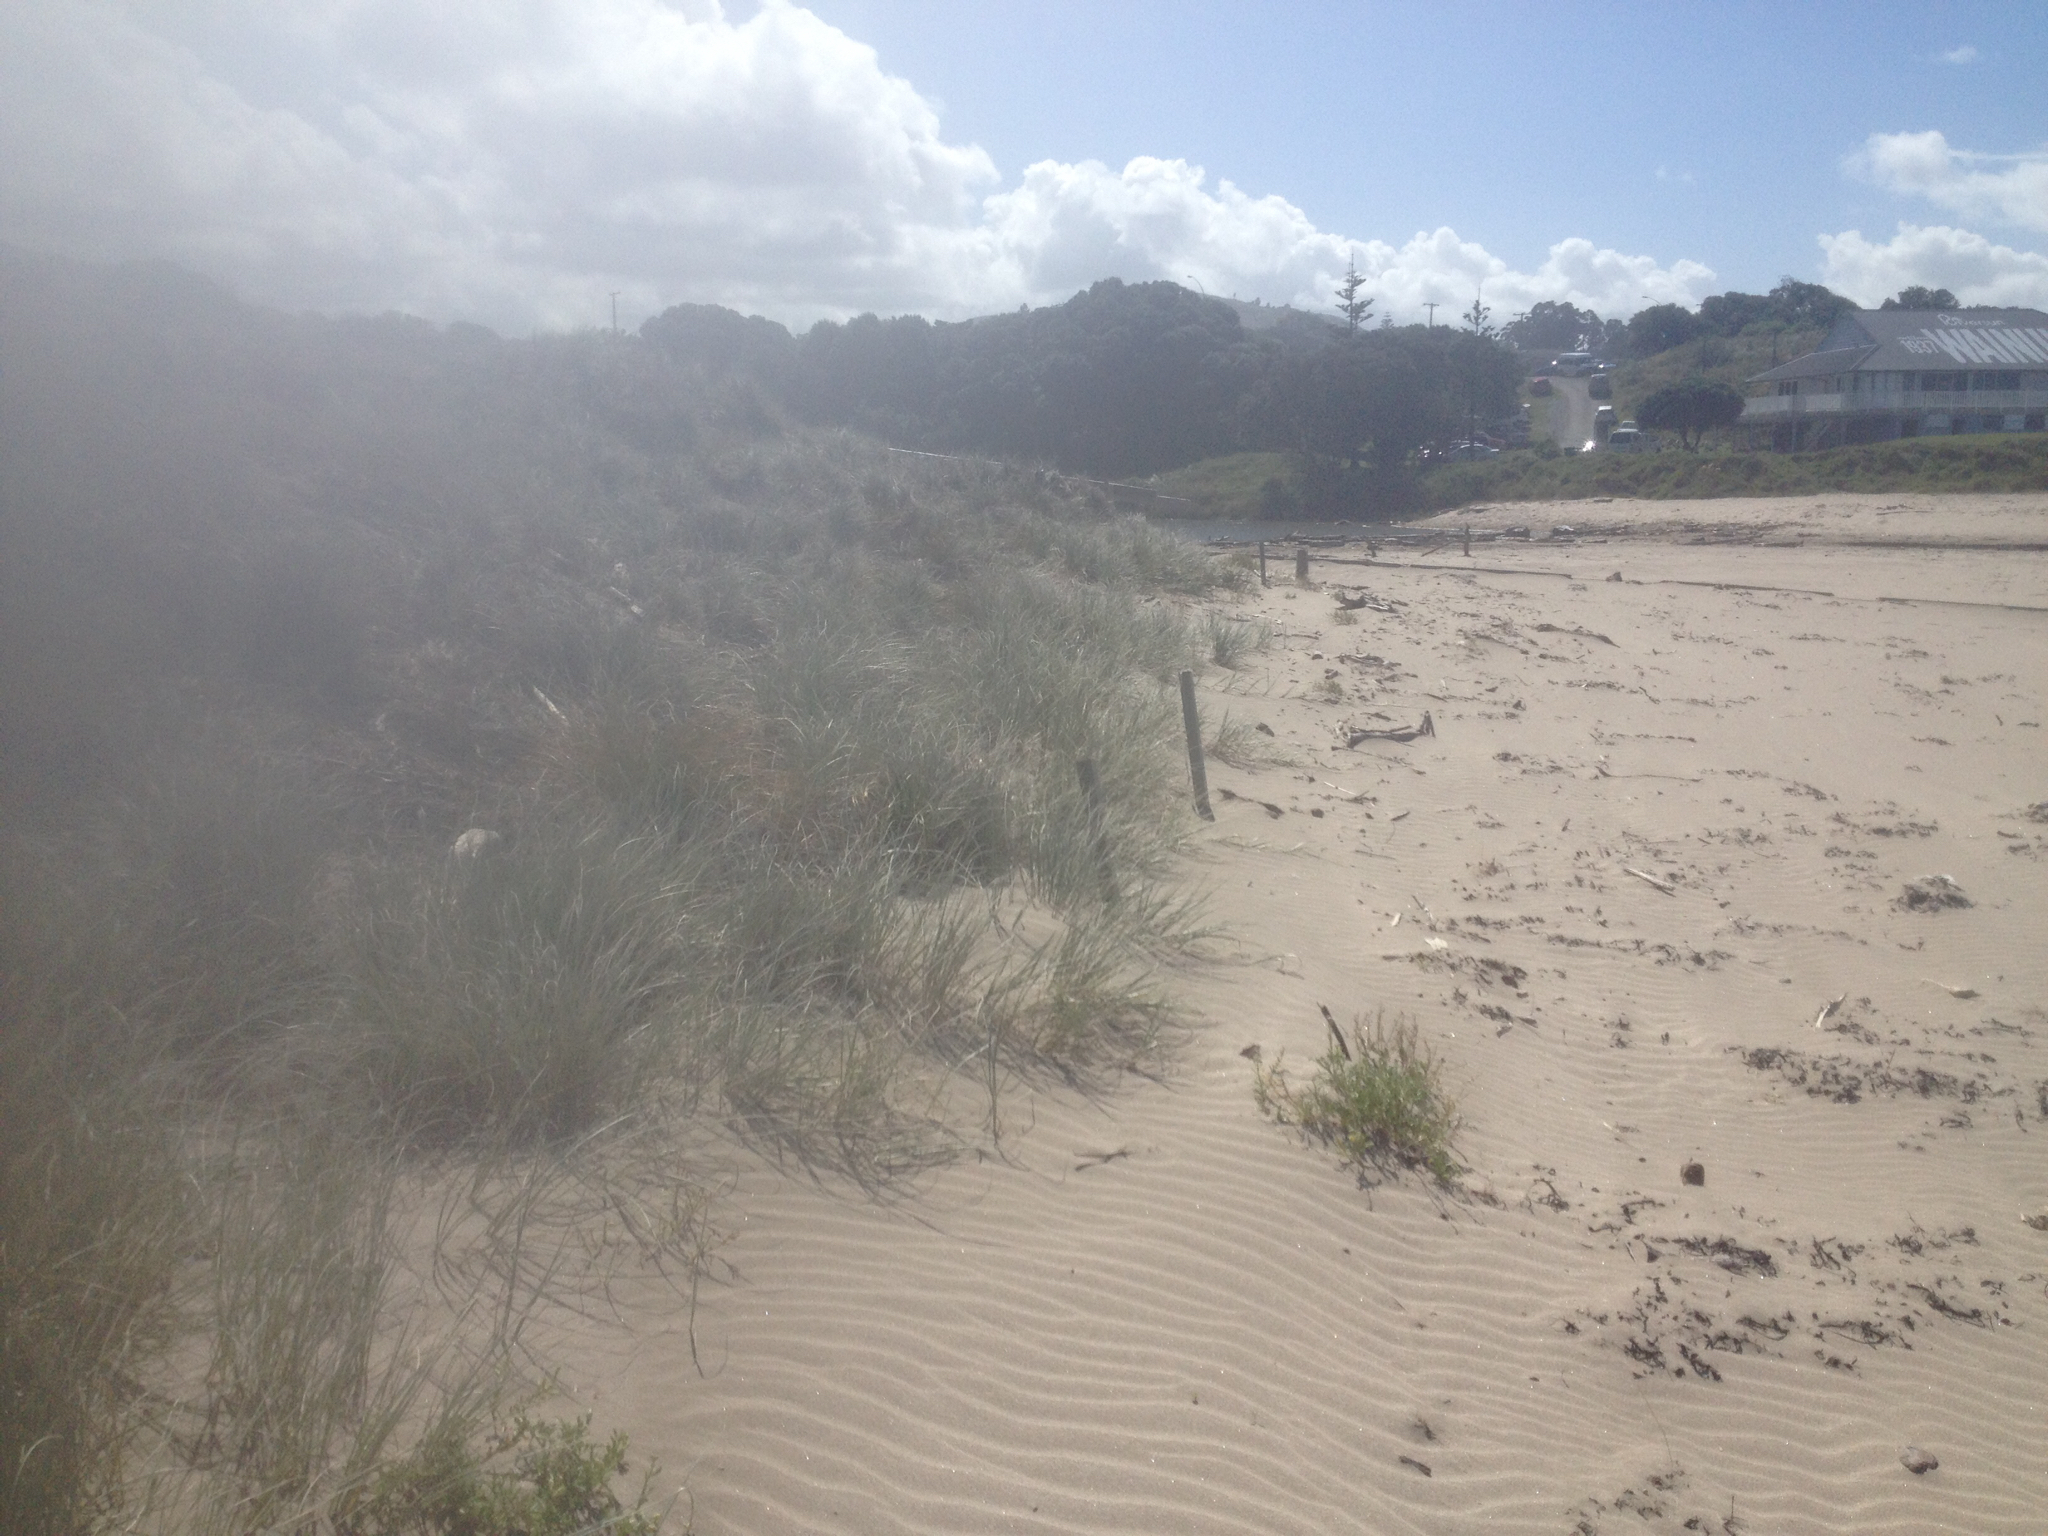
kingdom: Plantae
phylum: Tracheophyta
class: Liliopsida
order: Poales
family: Poaceae
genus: Spinifex
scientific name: Spinifex sericeus
